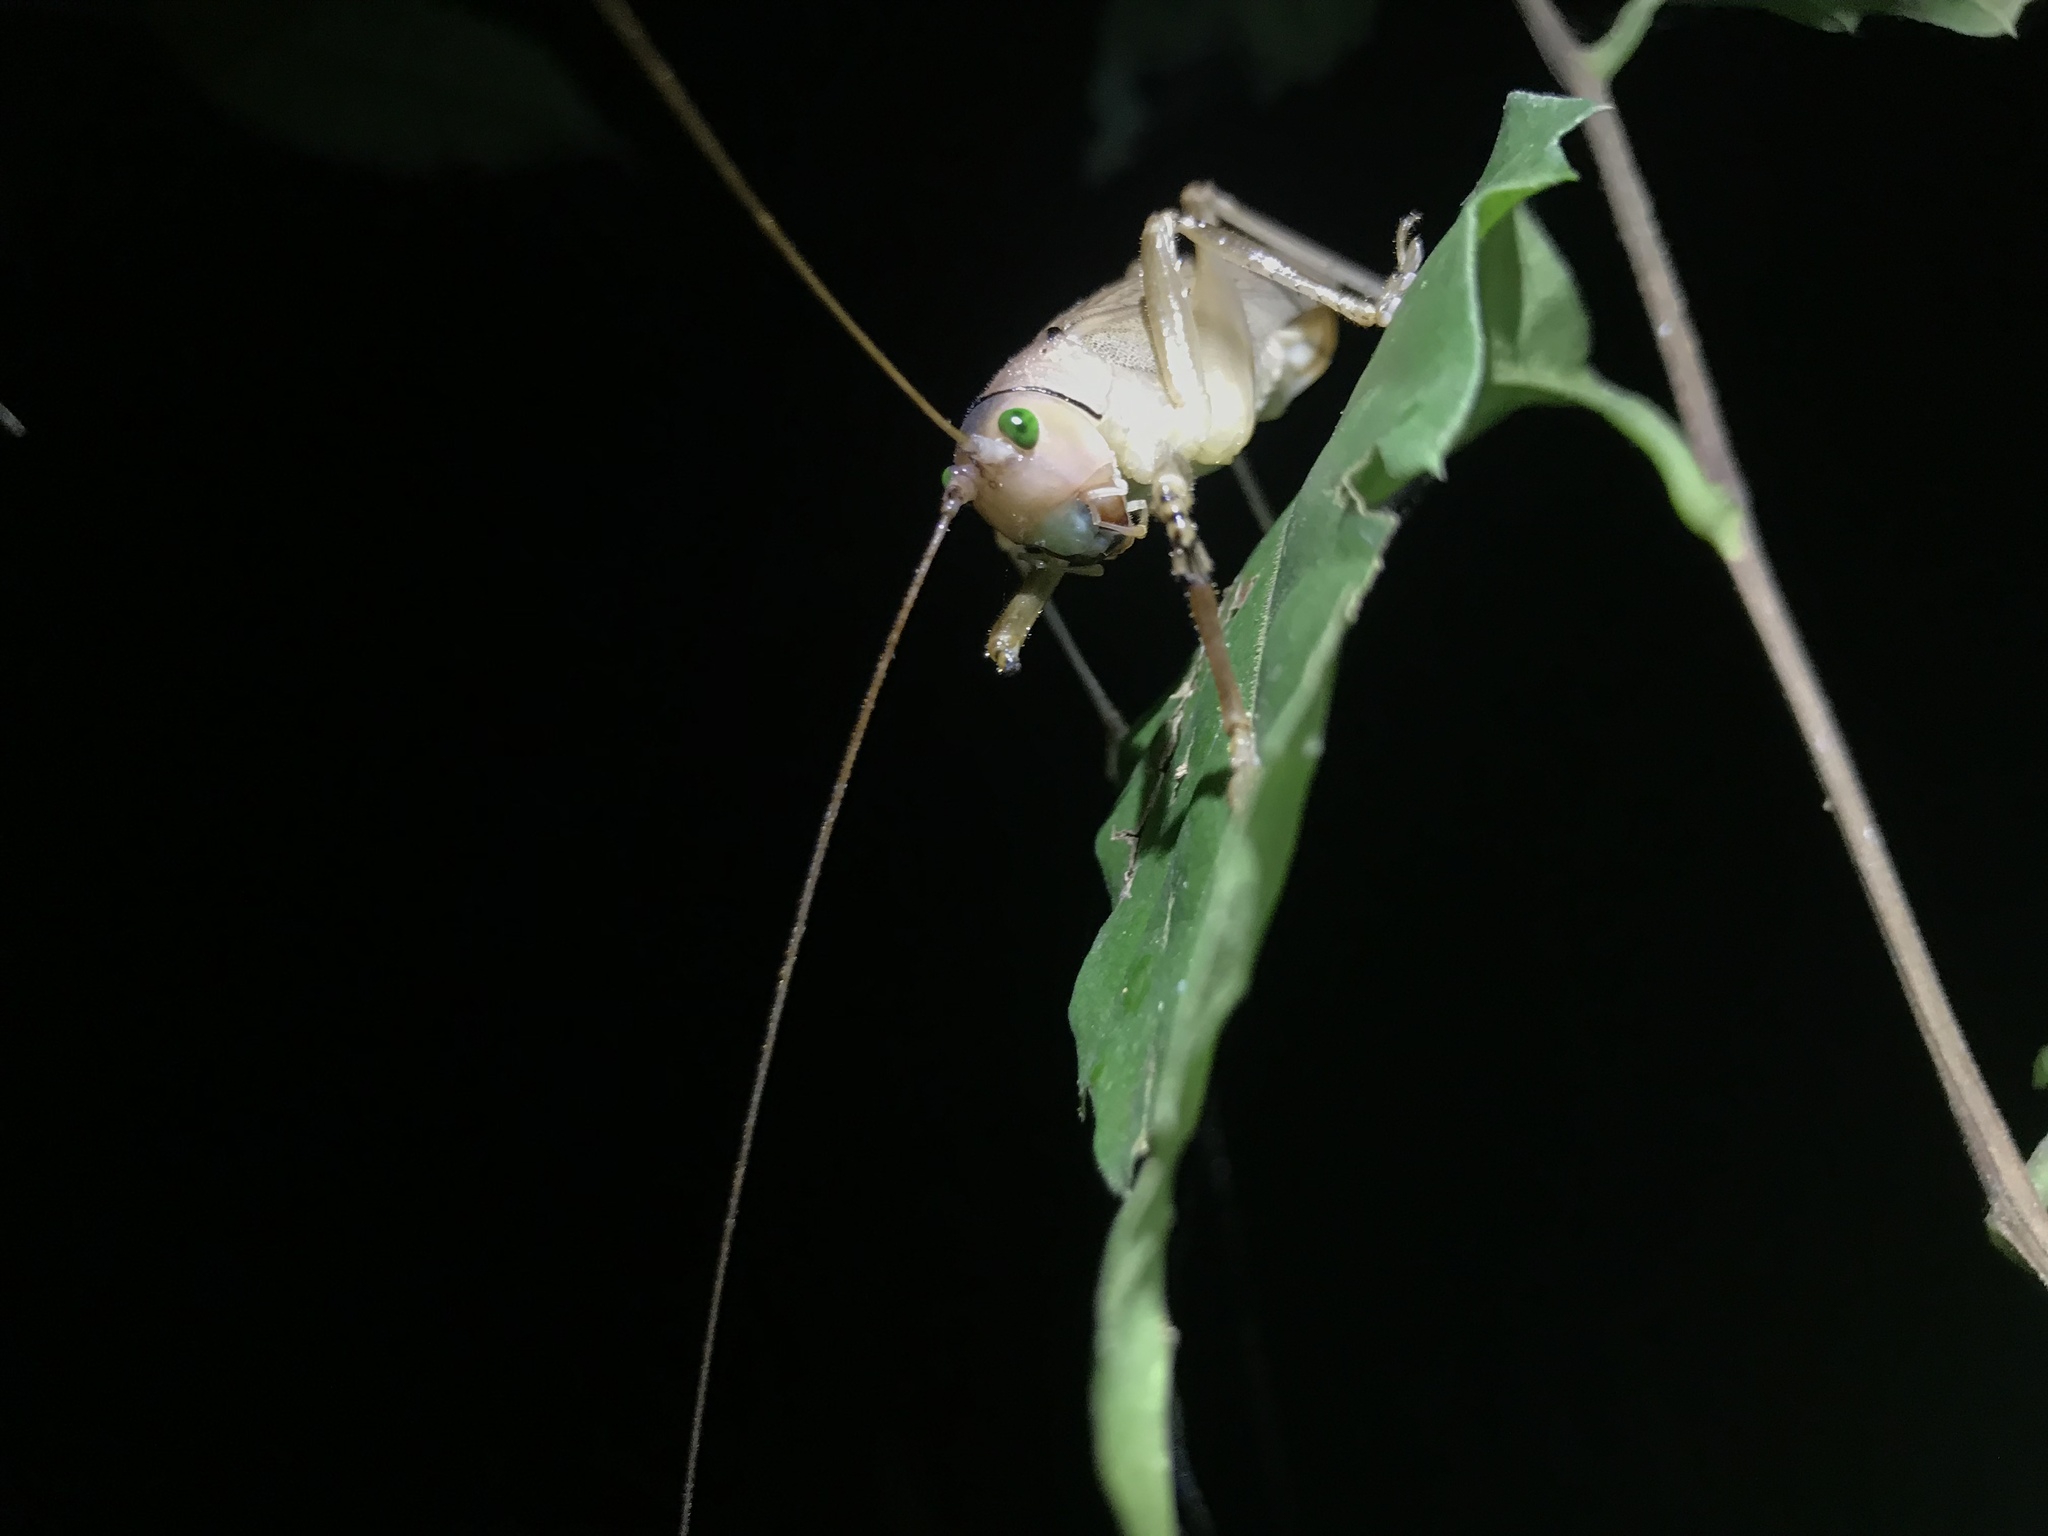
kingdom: Animalia
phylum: Arthropoda
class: Insecta
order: Orthoptera
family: Tettigoniidae
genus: Eubliastes
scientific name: Eubliastes pollonerae
